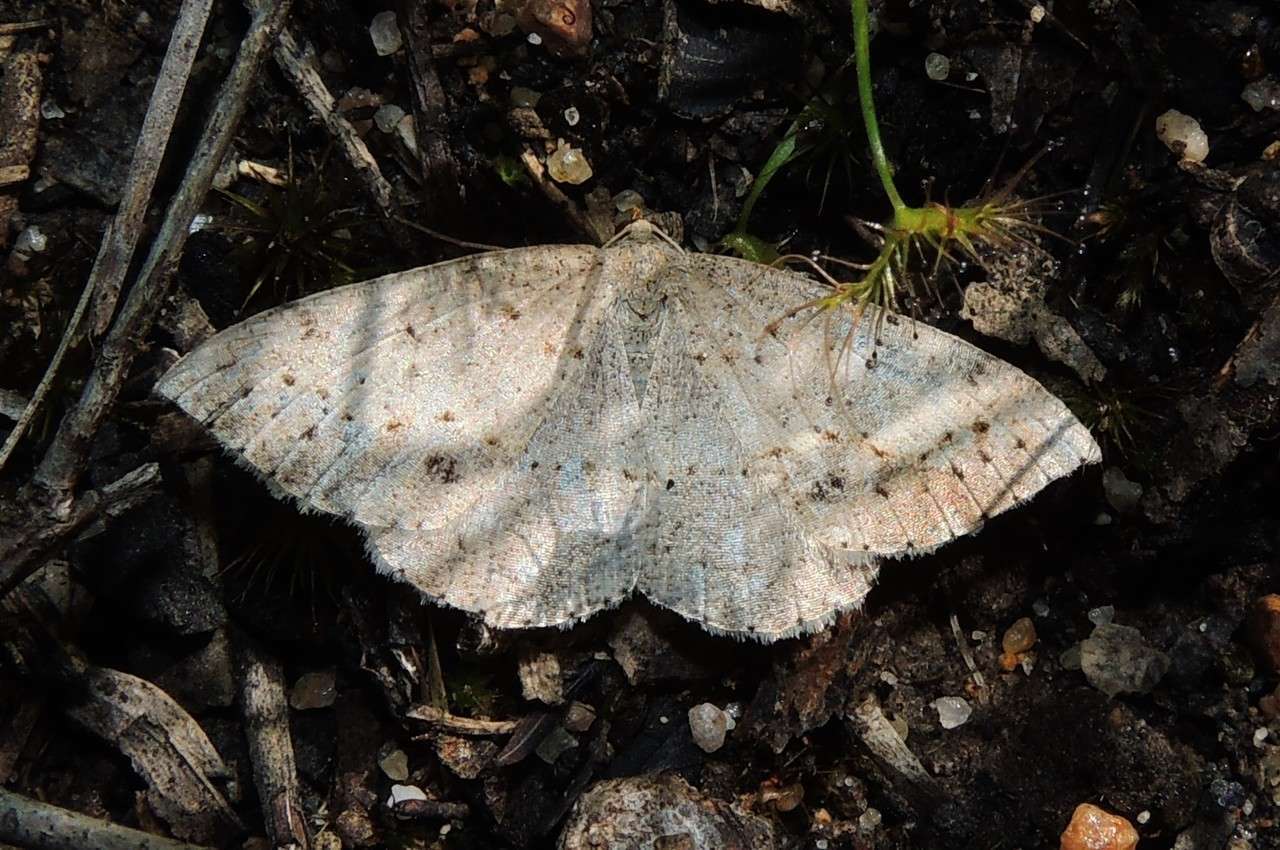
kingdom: Animalia
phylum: Arthropoda
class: Insecta
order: Lepidoptera
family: Geometridae
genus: Taxeotis
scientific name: Taxeotis perlinearia
